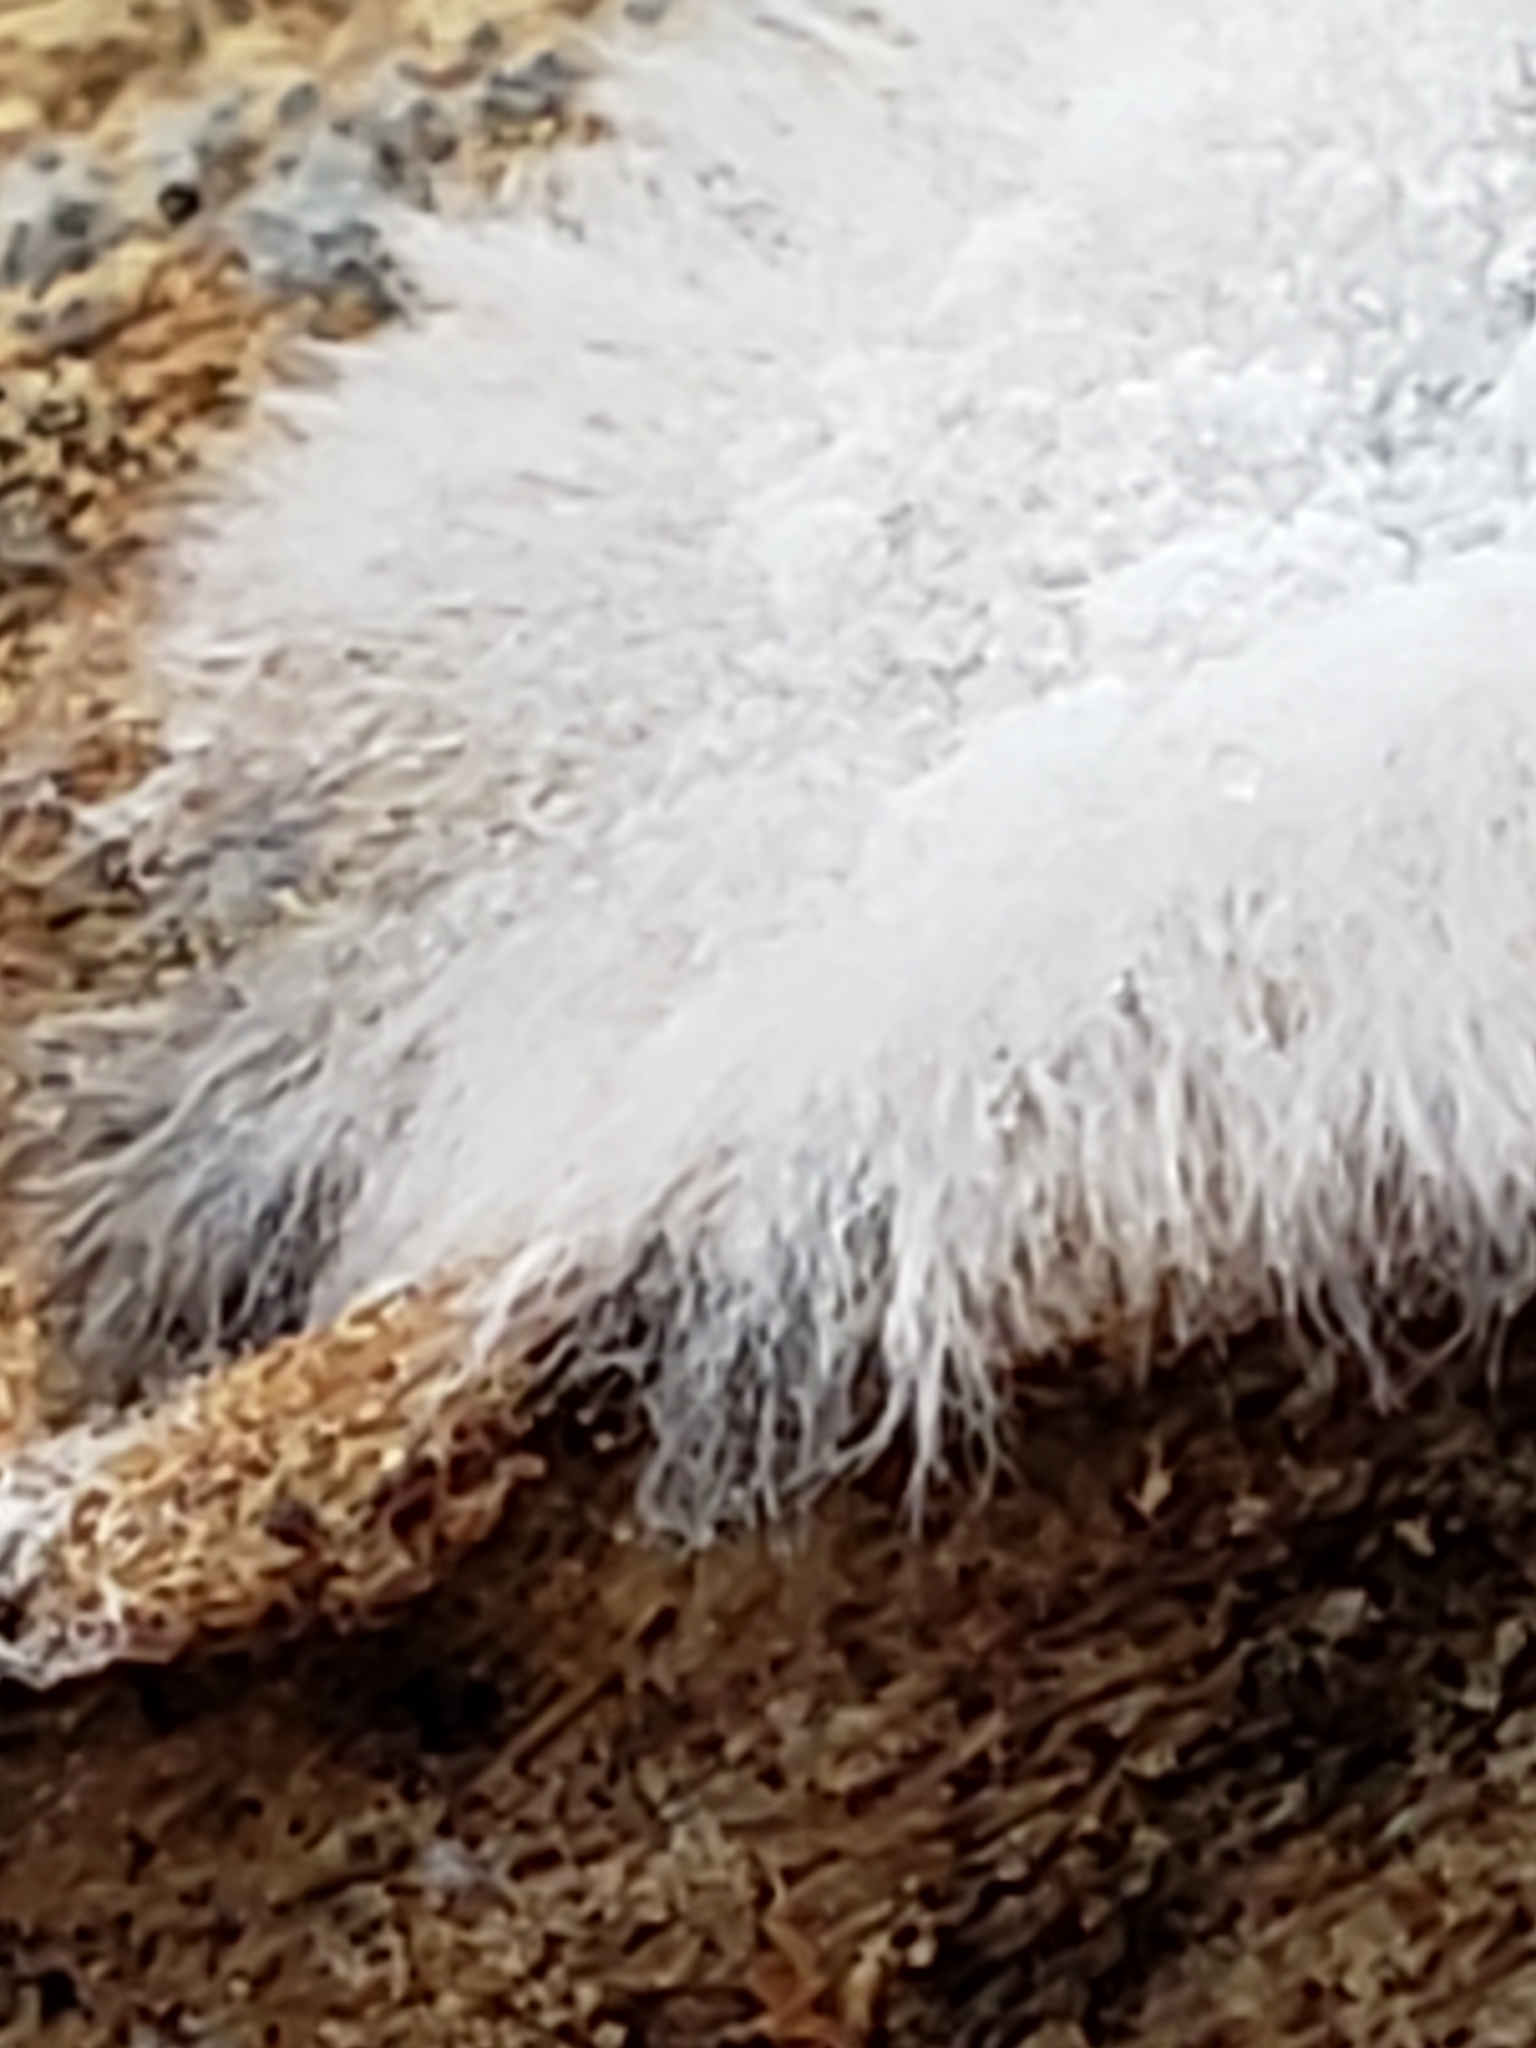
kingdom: Fungi
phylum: Mucoromycota
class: Mucoromycetes
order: Mucorales
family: Rhizopodaceae
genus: Syzygites
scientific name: Syzygites megalocarpus
